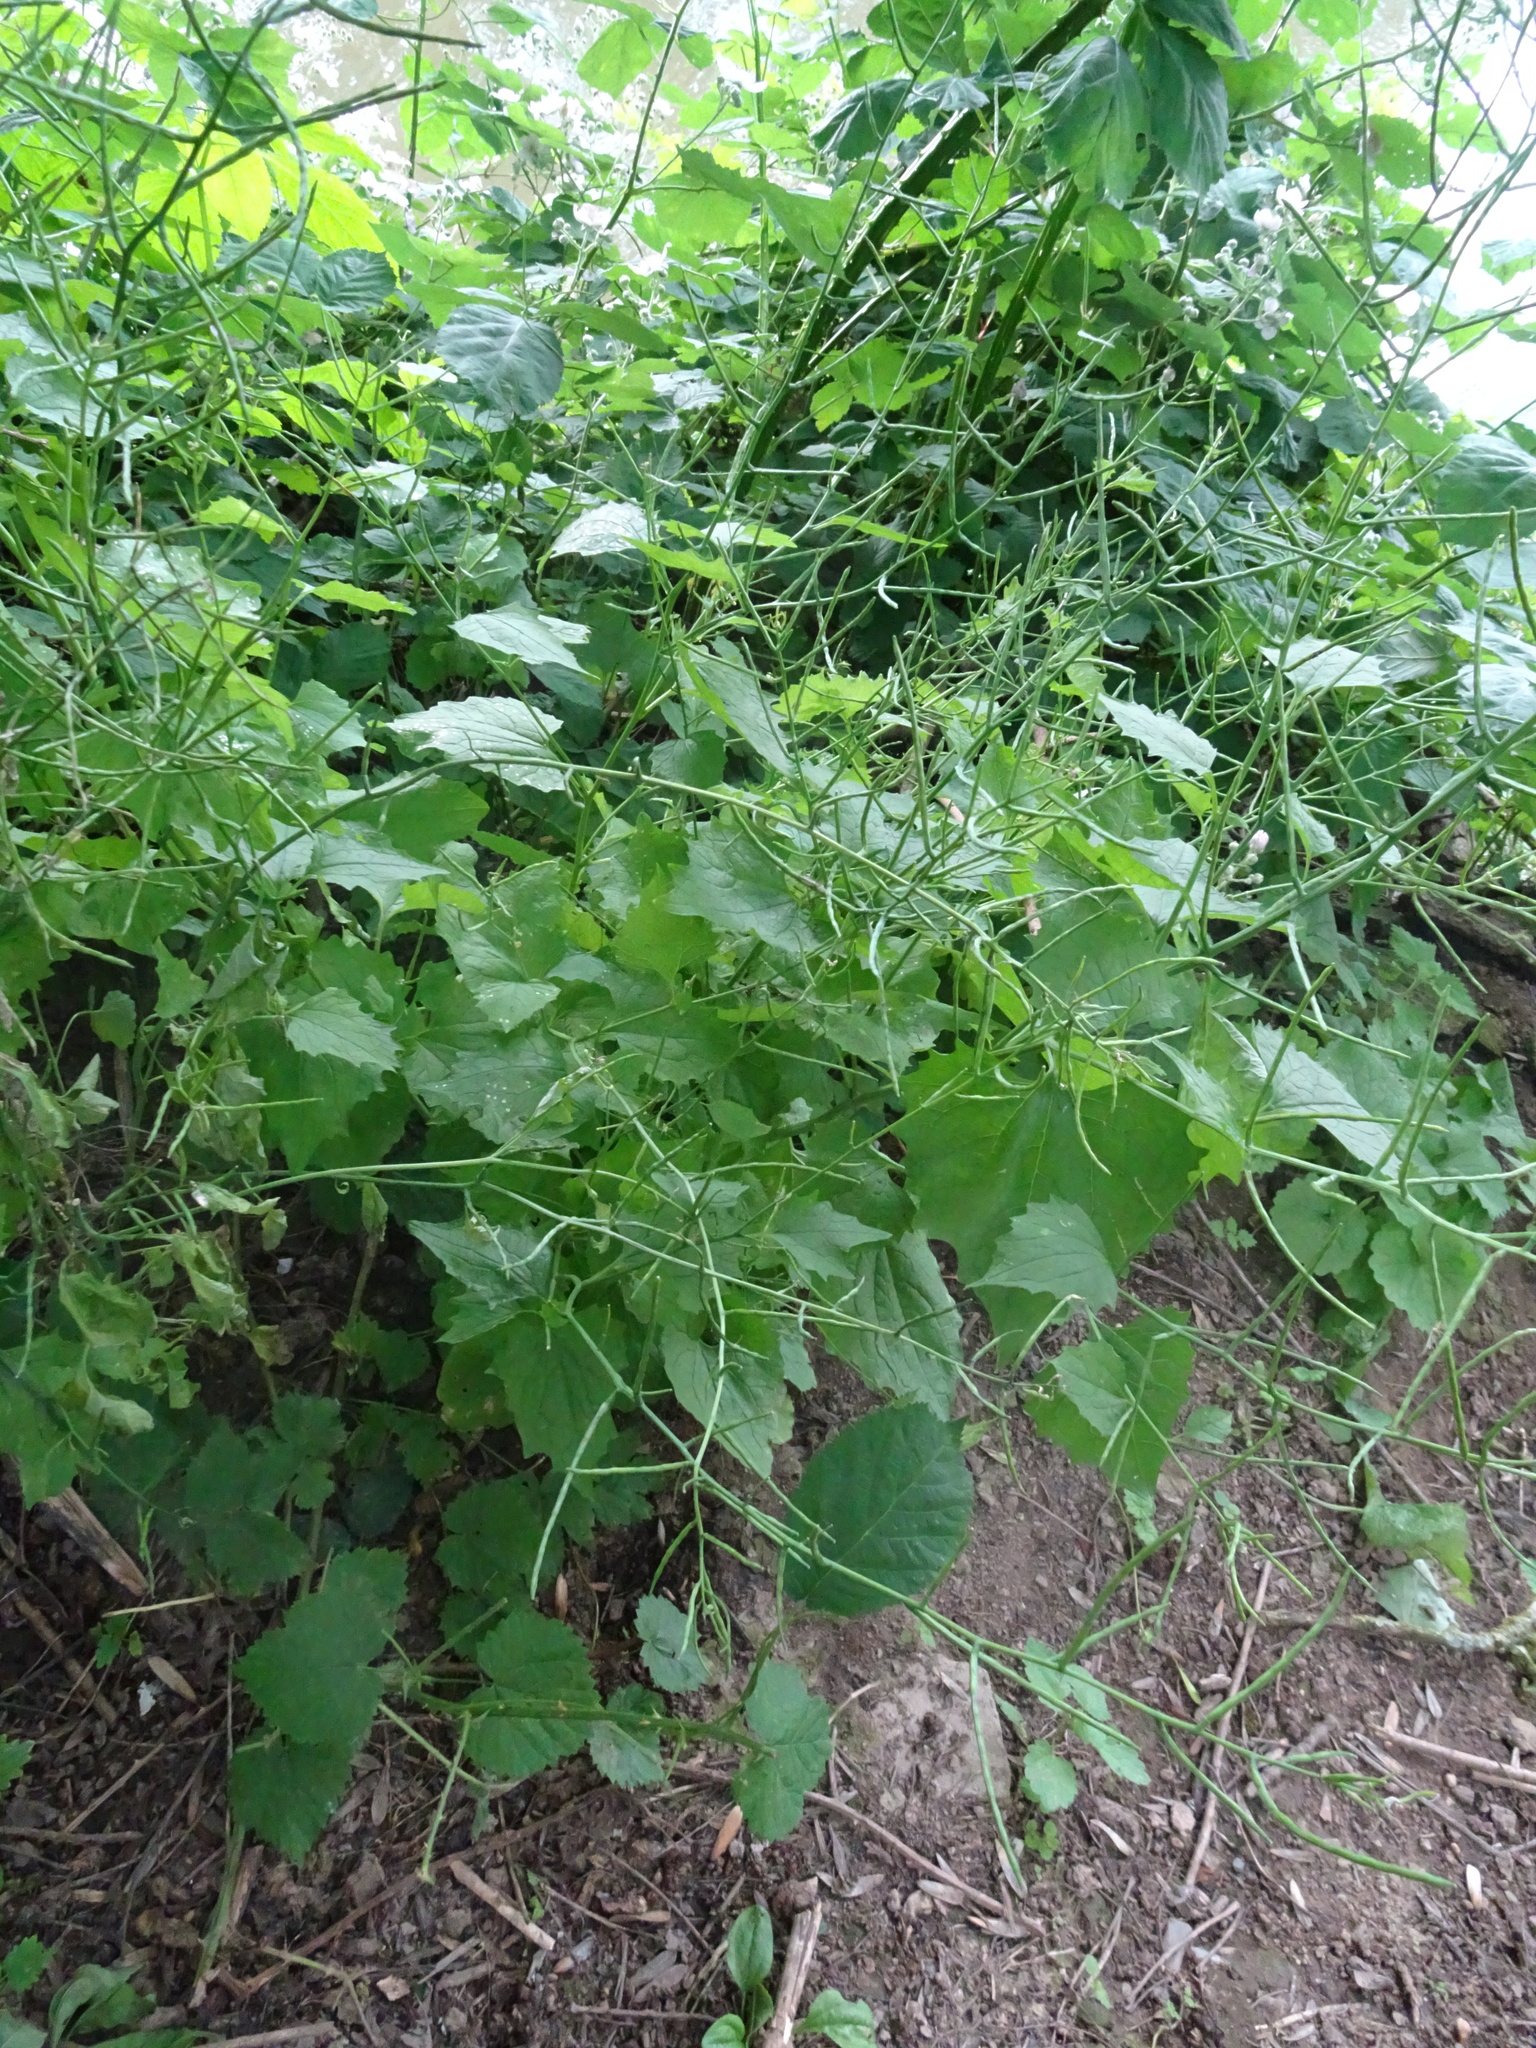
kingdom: Plantae
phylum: Tracheophyta
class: Magnoliopsida
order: Brassicales
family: Brassicaceae
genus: Alliaria
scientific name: Alliaria petiolata
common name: Garlic mustard
